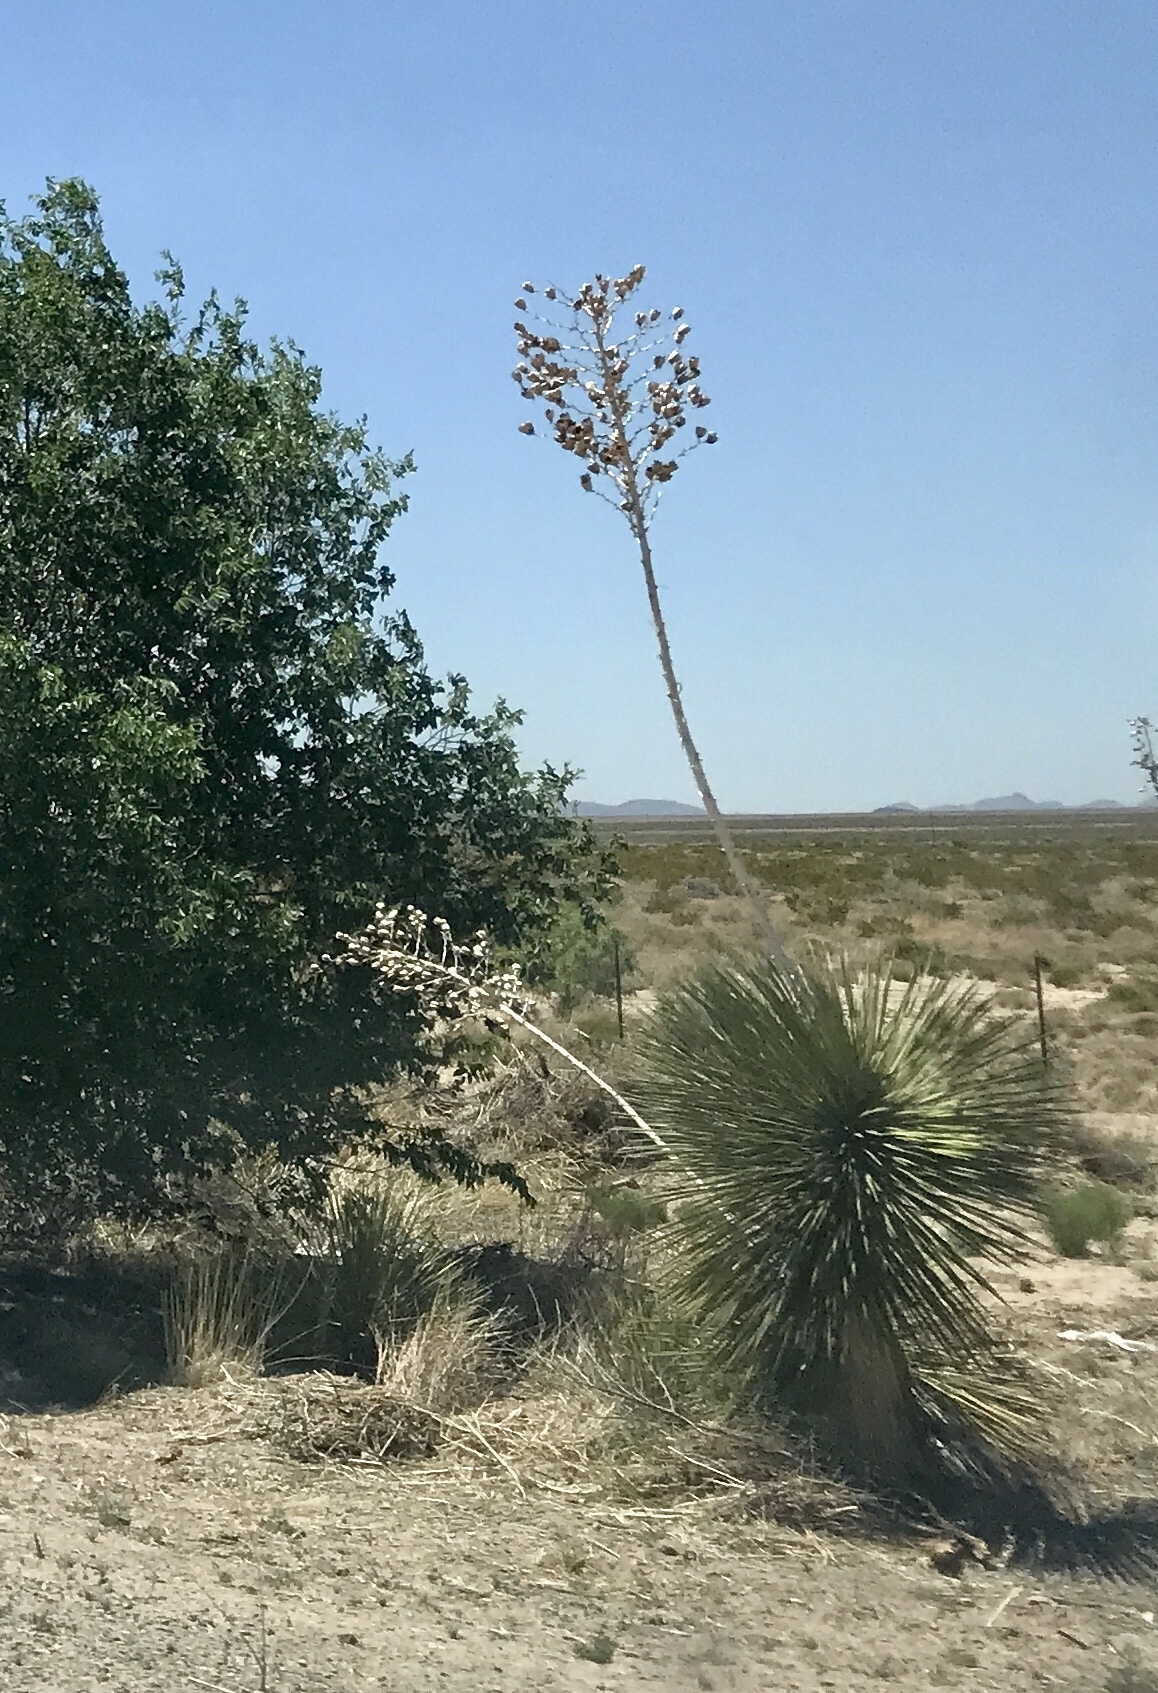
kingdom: Plantae
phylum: Tracheophyta
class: Liliopsida
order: Asparagales
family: Asparagaceae
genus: Yucca
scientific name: Yucca elata
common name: Palmella
